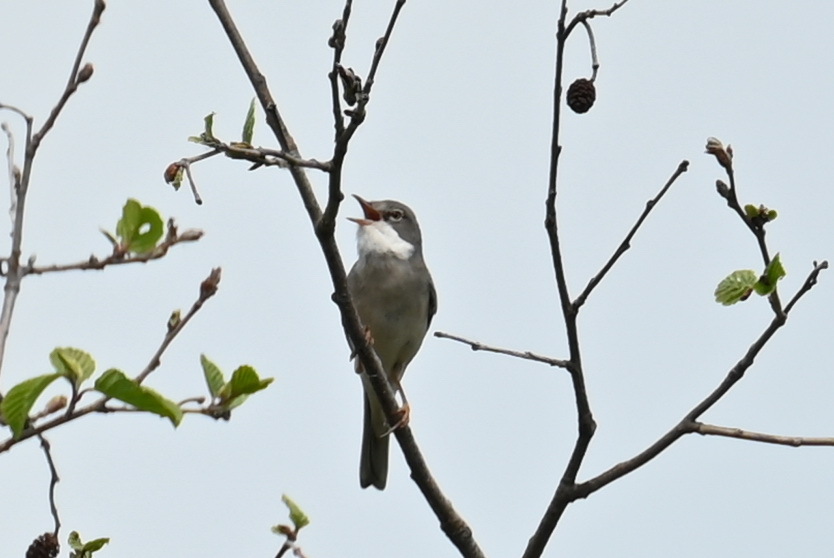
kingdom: Animalia
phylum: Chordata
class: Aves
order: Passeriformes
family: Sylviidae
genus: Sylvia
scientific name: Sylvia communis
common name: Common whitethroat
